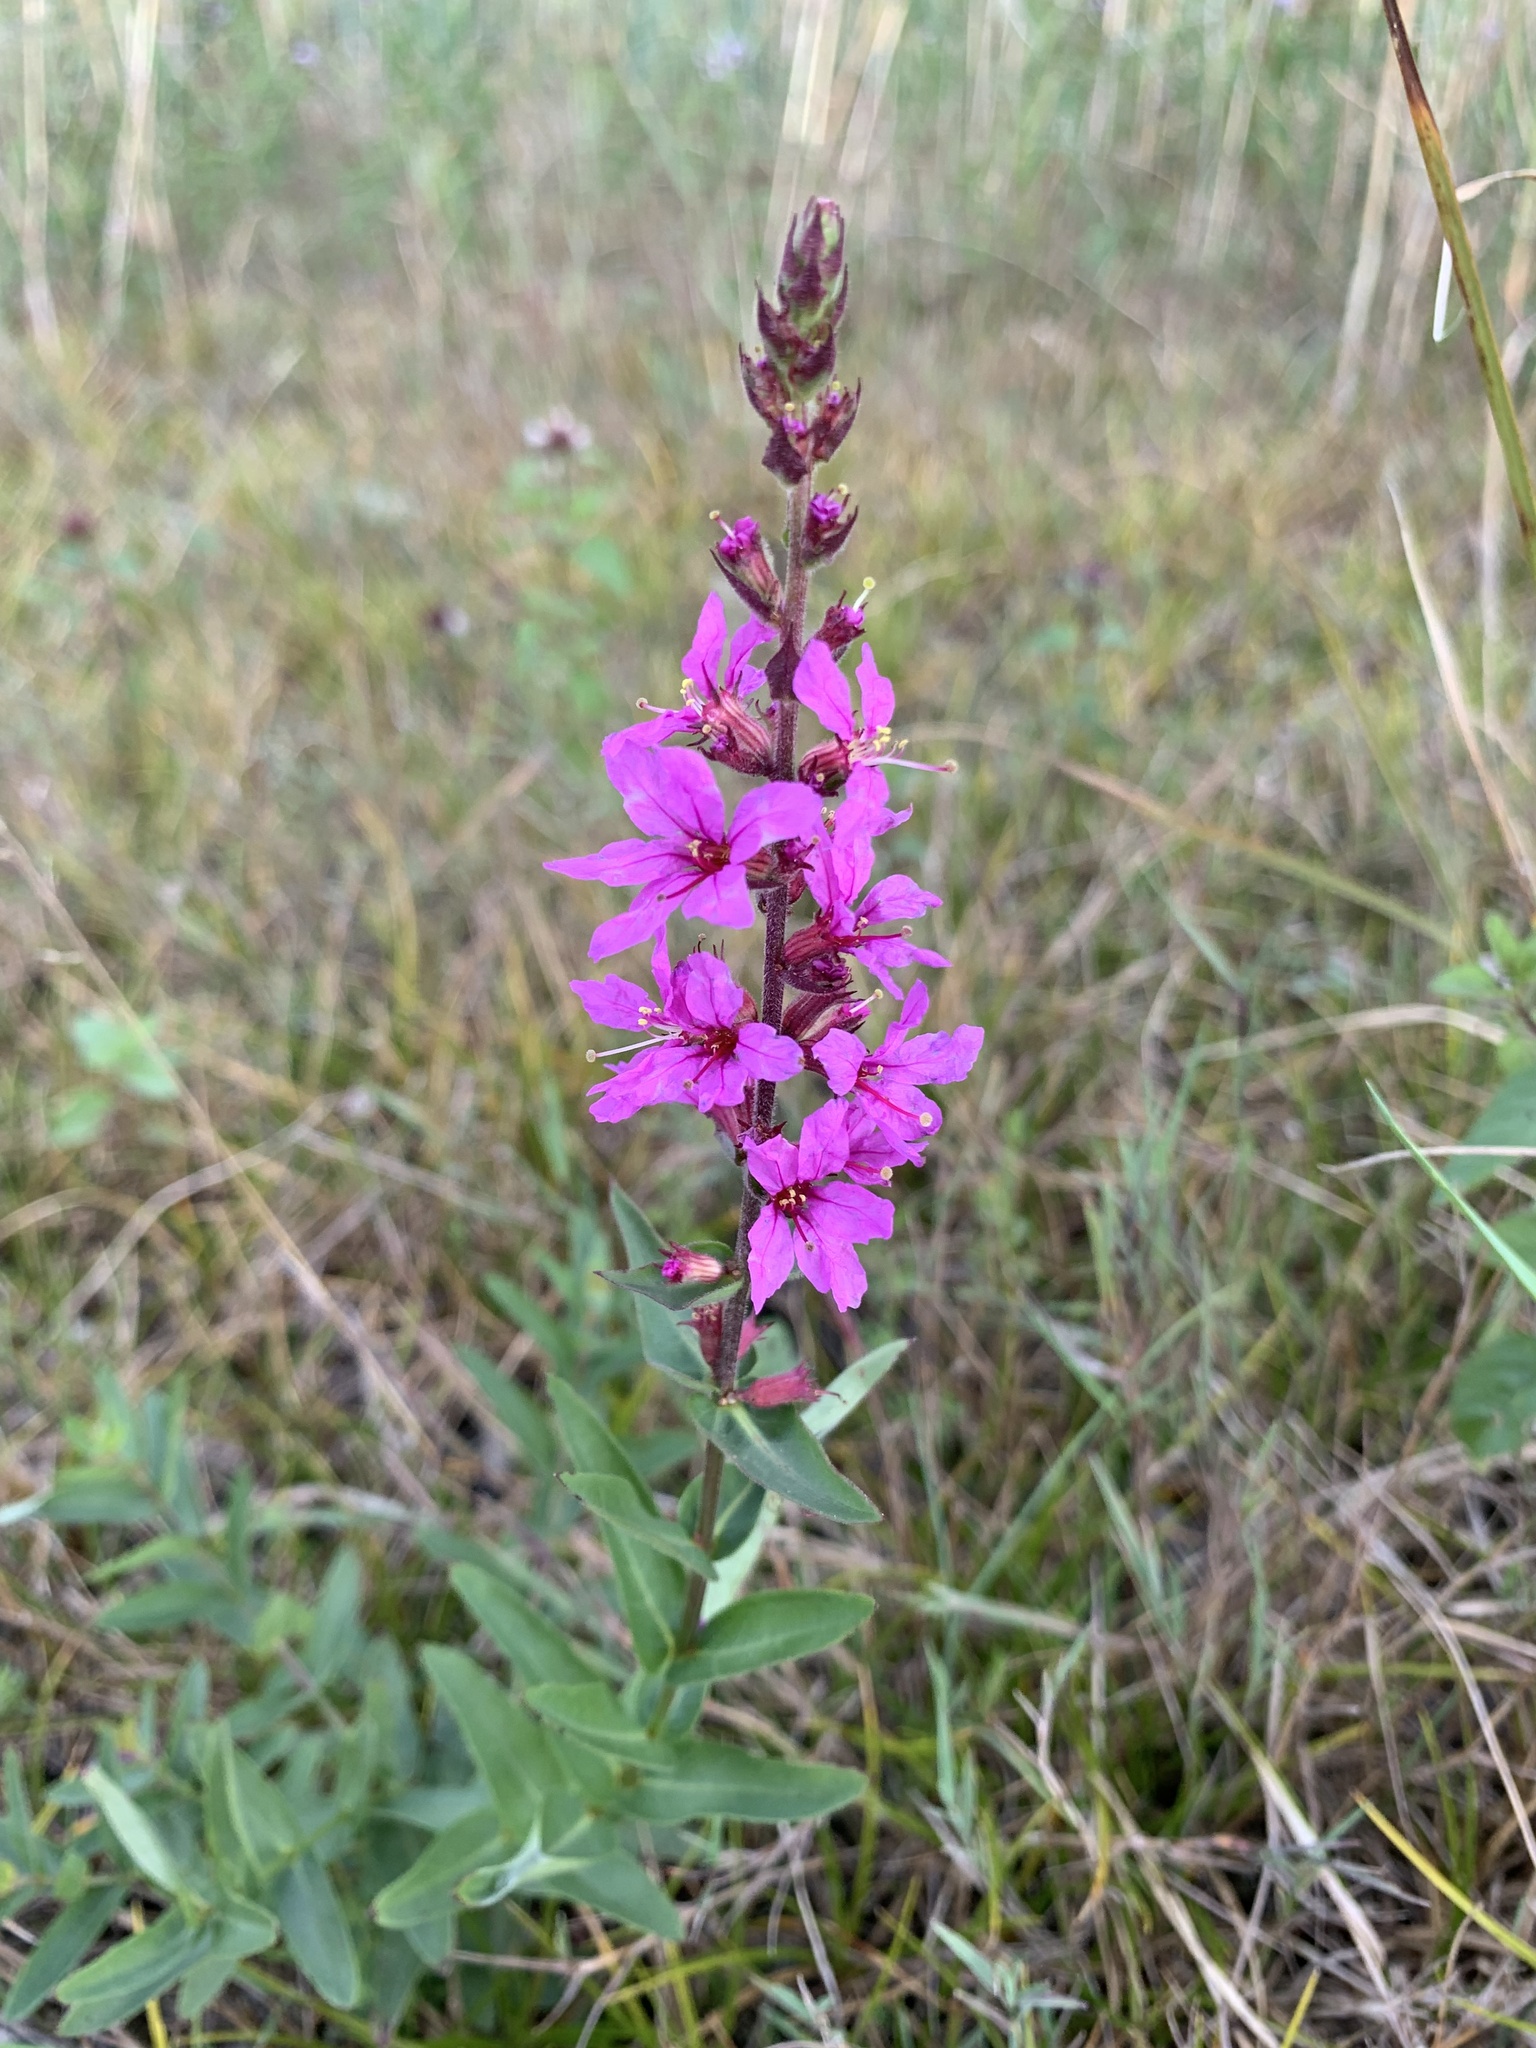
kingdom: Plantae
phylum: Tracheophyta
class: Magnoliopsida
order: Myrtales
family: Lythraceae
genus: Lythrum
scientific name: Lythrum salicaria
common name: Purple loosestrife
